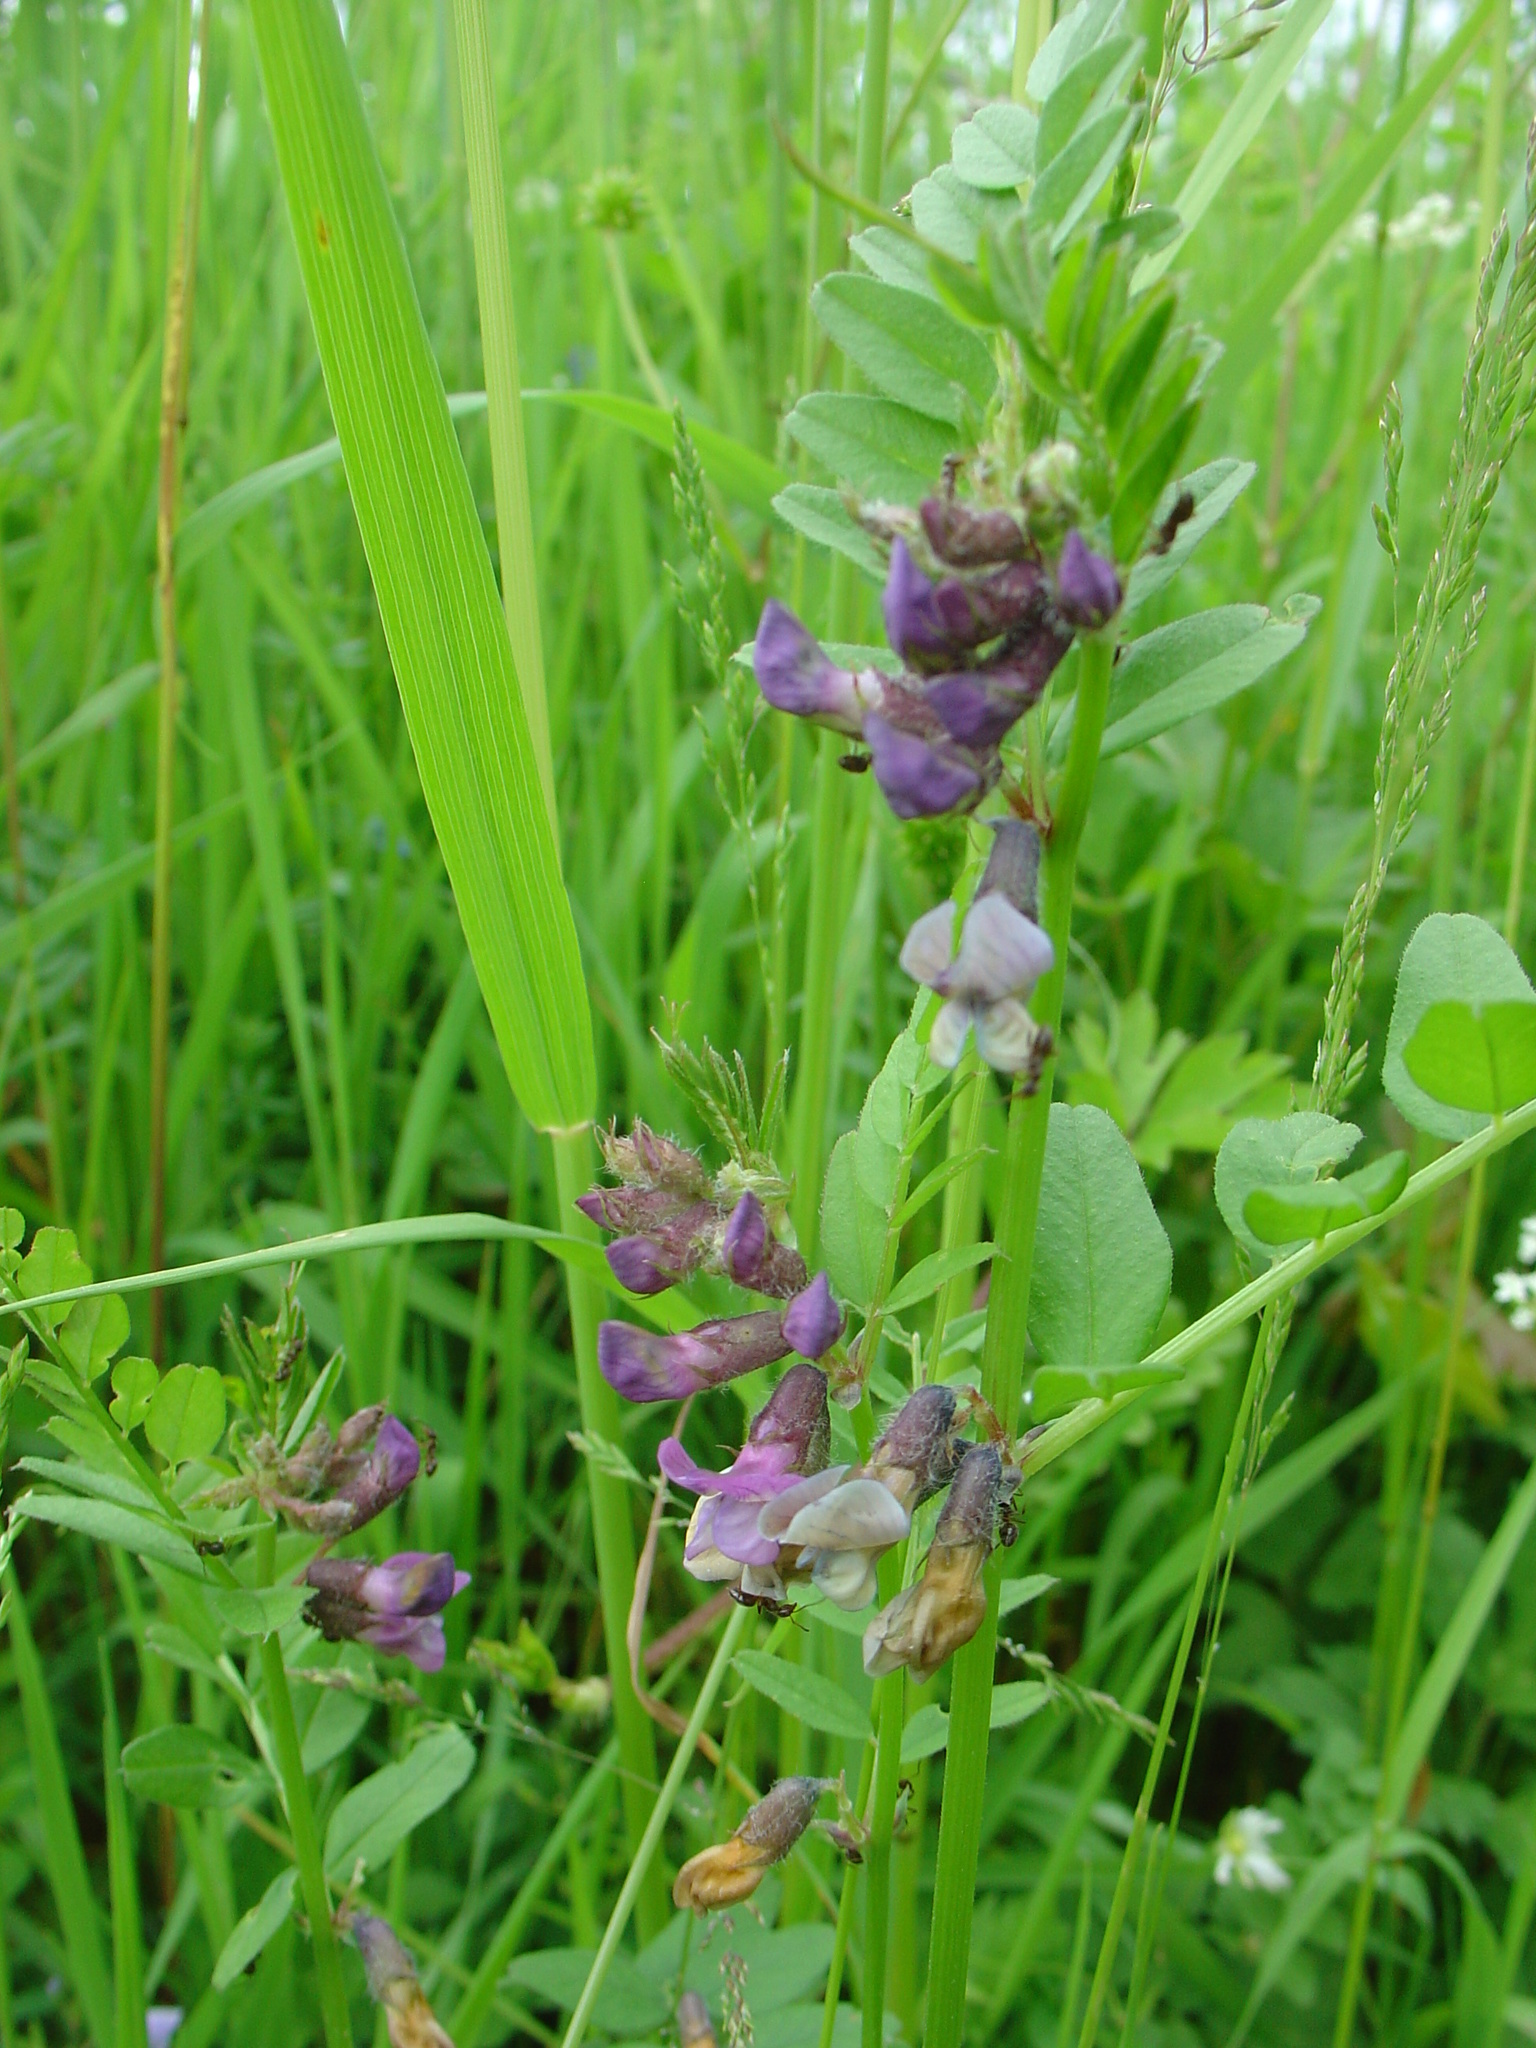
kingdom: Plantae
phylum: Tracheophyta
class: Magnoliopsida
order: Fabales
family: Fabaceae
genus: Vicia
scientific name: Vicia sepium
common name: Bush vetch
